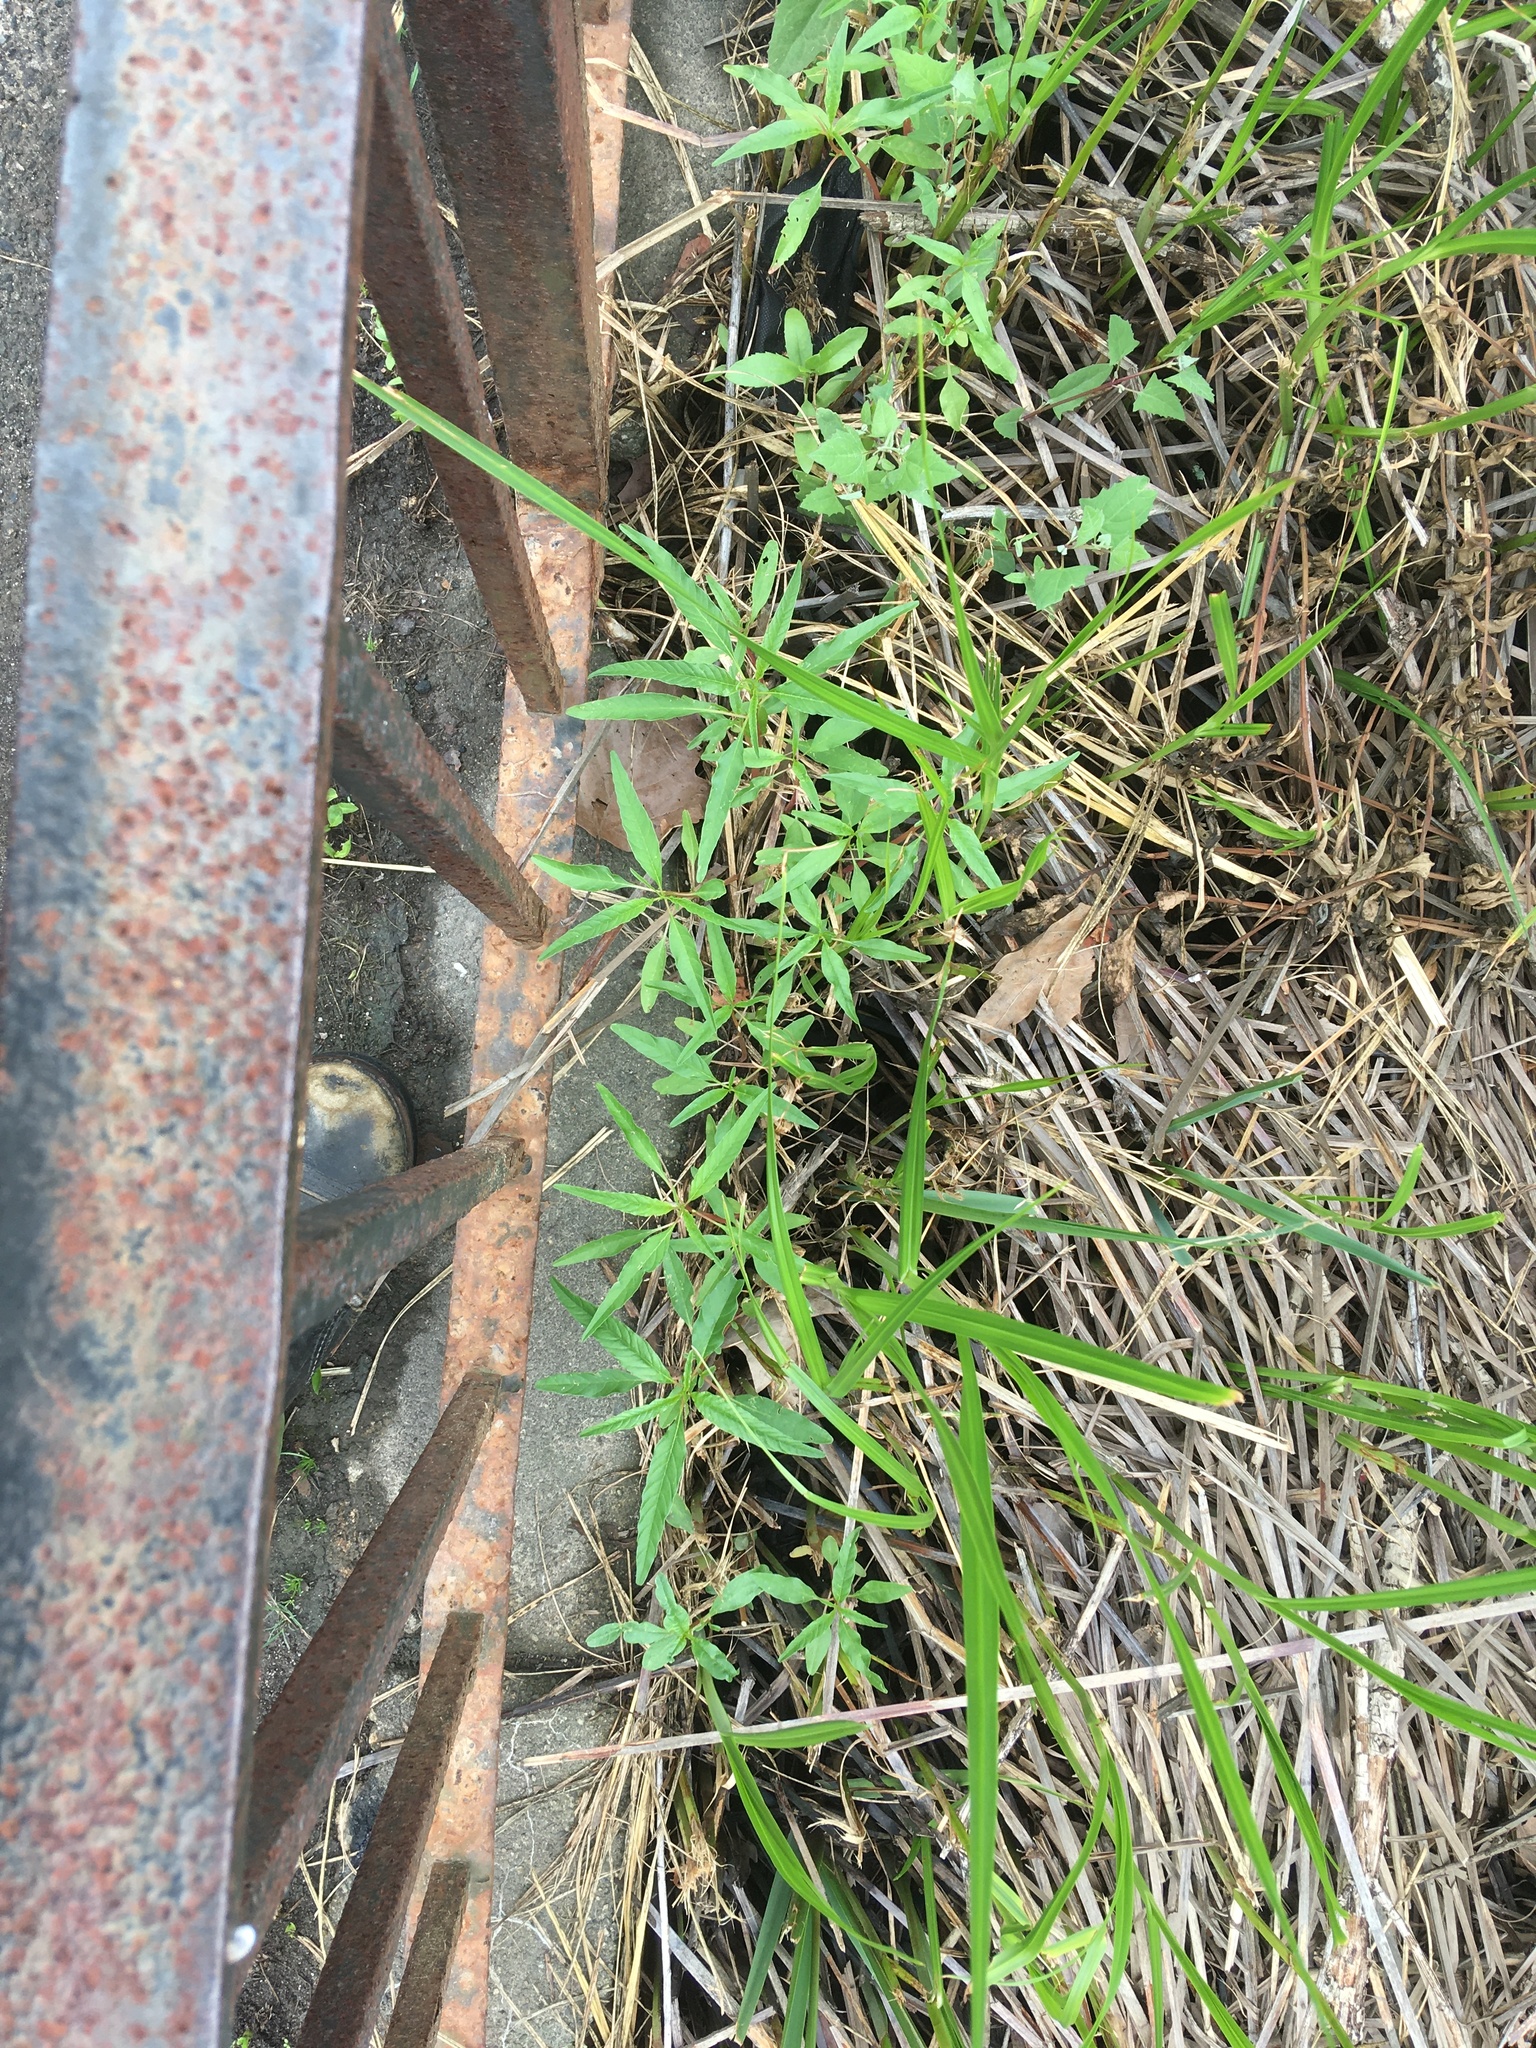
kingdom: Plantae
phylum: Tracheophyta
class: Magnoliopsida
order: Gentianales
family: Apocynaceae
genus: Apocynum
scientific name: Apocynum cannabinum
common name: Hemp dogbane
